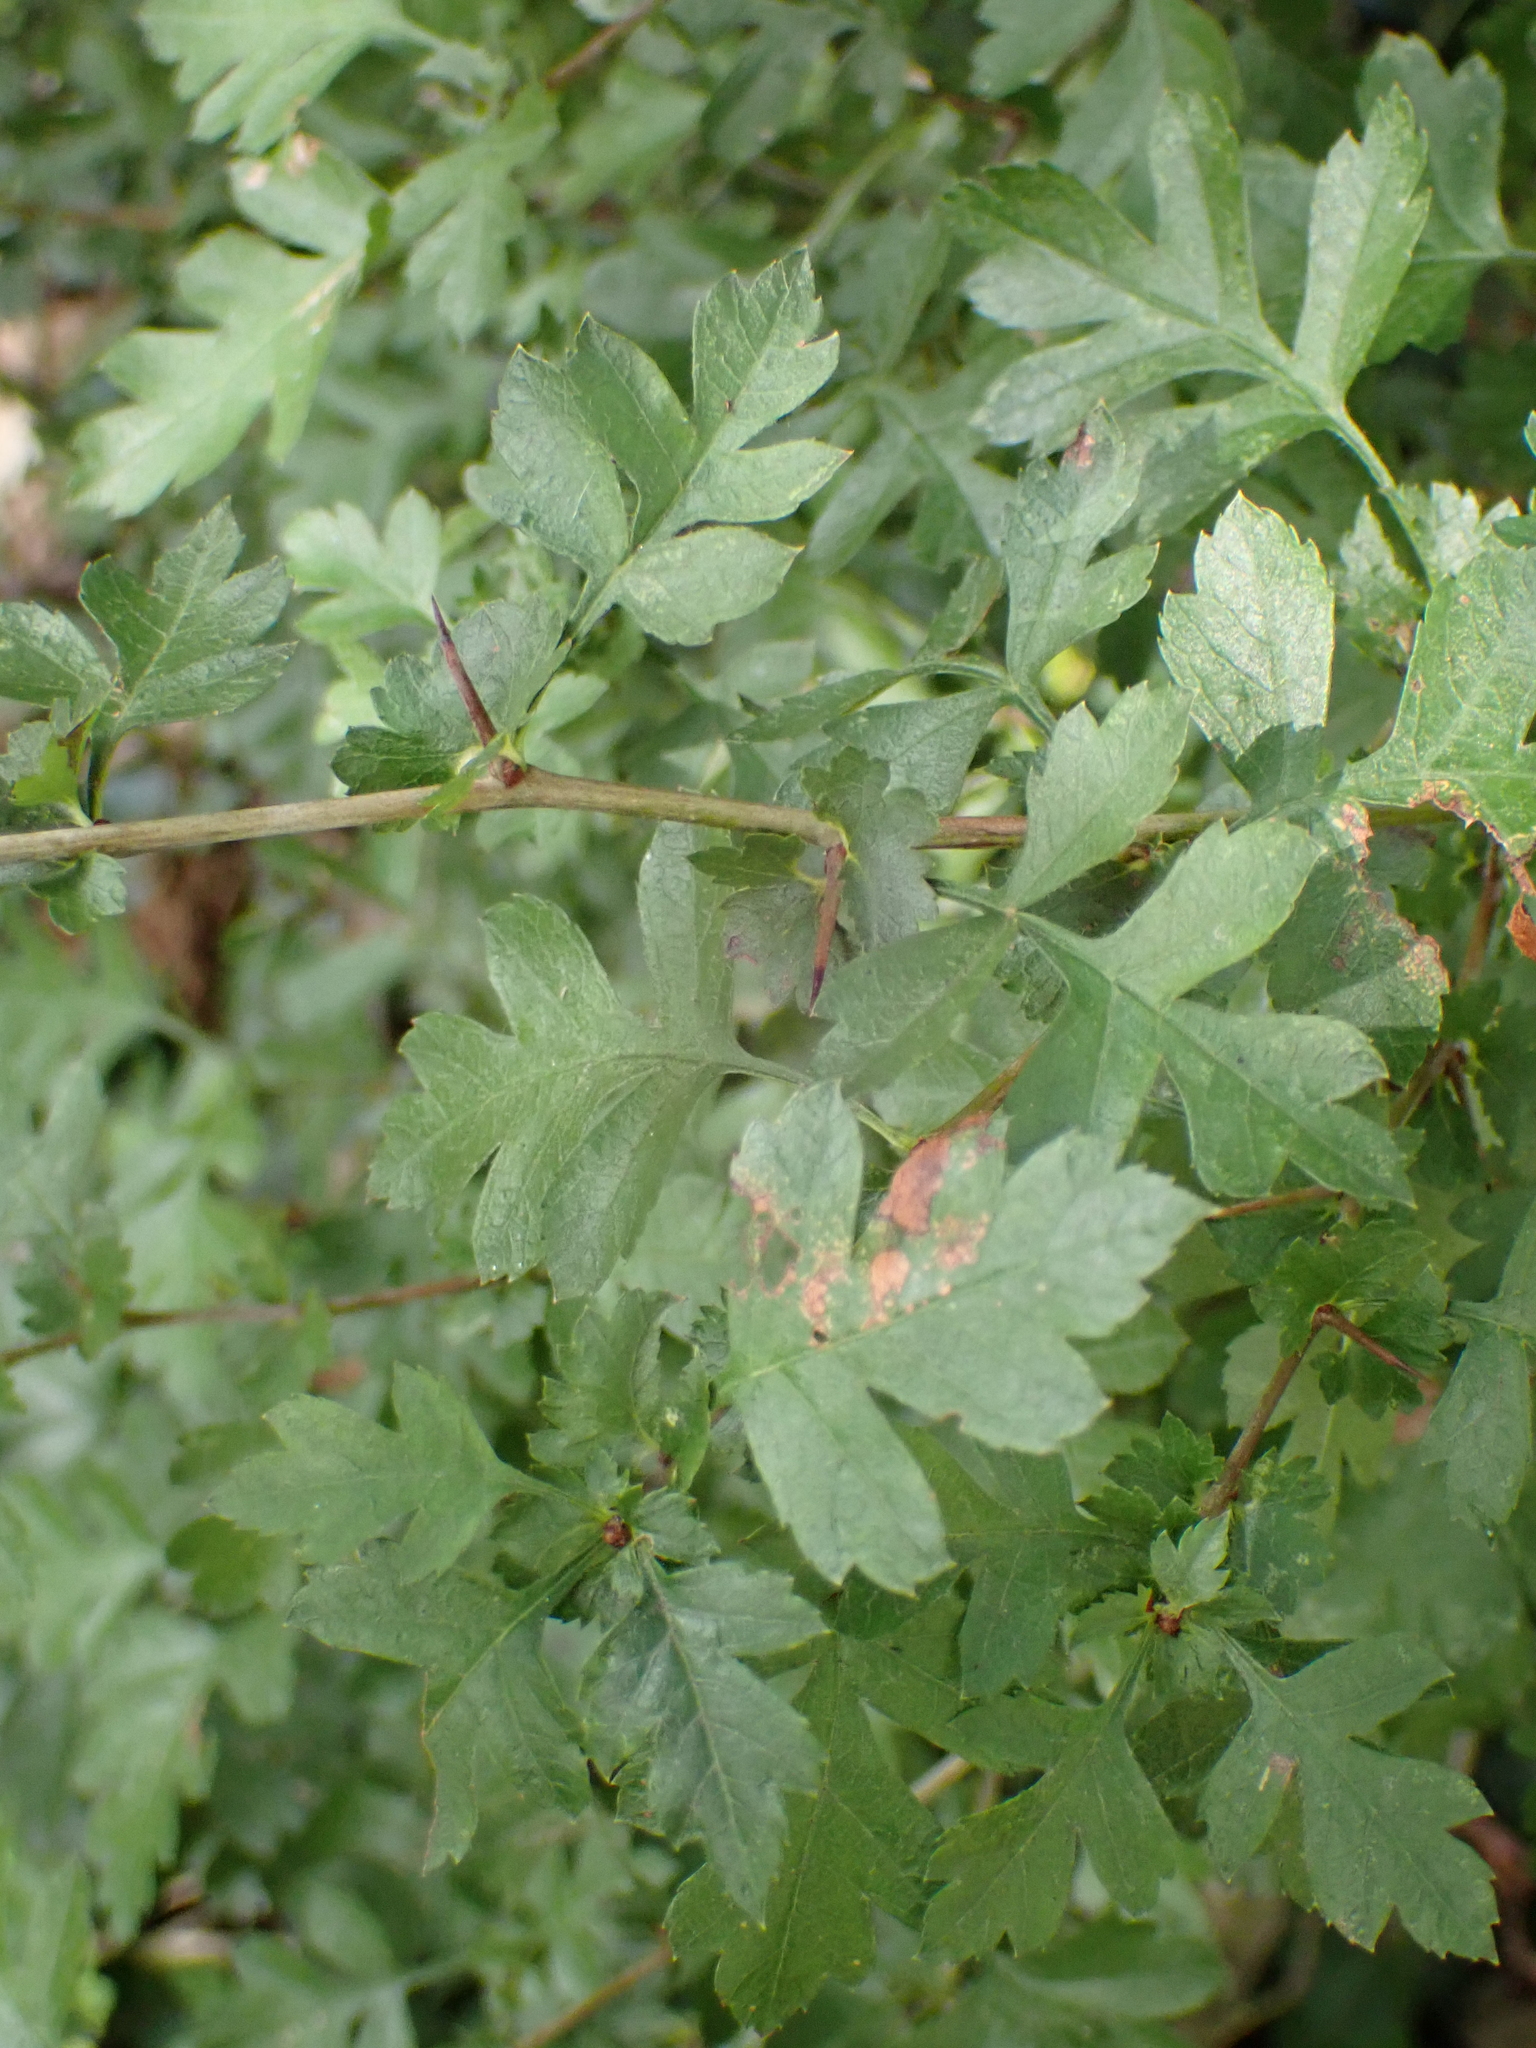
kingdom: Plantae
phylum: Tracheophyta
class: Magnoliopsida
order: Rosales
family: Rosaceae
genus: Crataegus
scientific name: Crataegus monogyna
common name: Hawthorn
